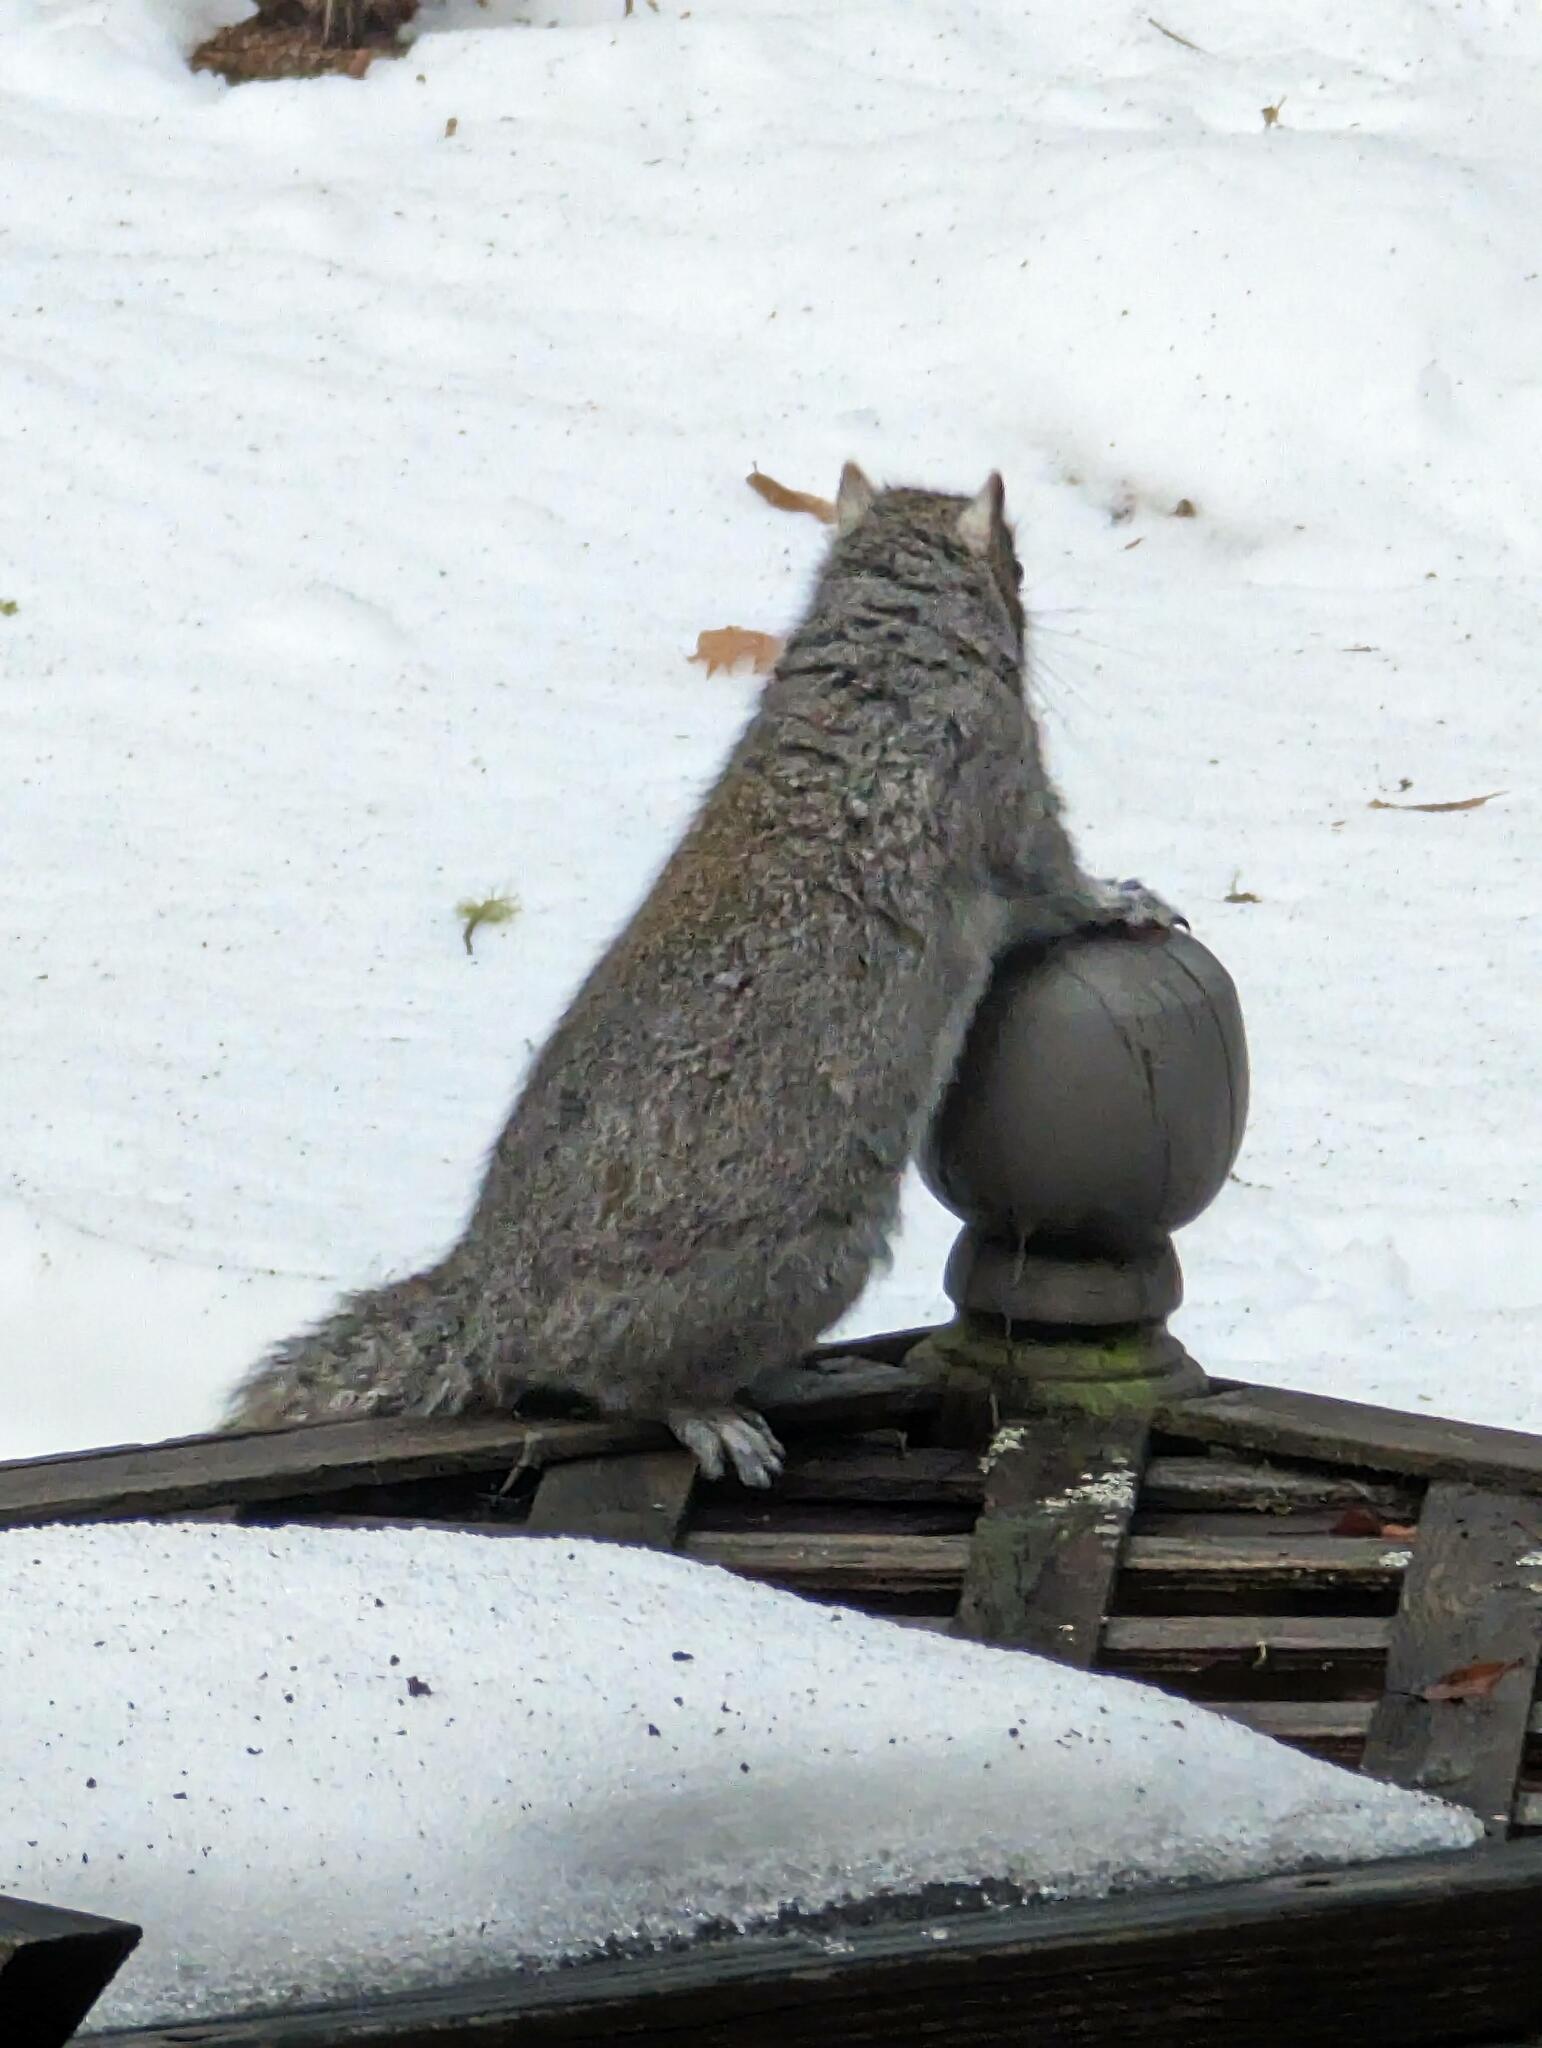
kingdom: Animalia
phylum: Chordata
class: Mammalia
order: Rodentia
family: Sciuridae
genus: Sciurus
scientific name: Sciurus carolinensis
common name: Eastern gray squirrel
